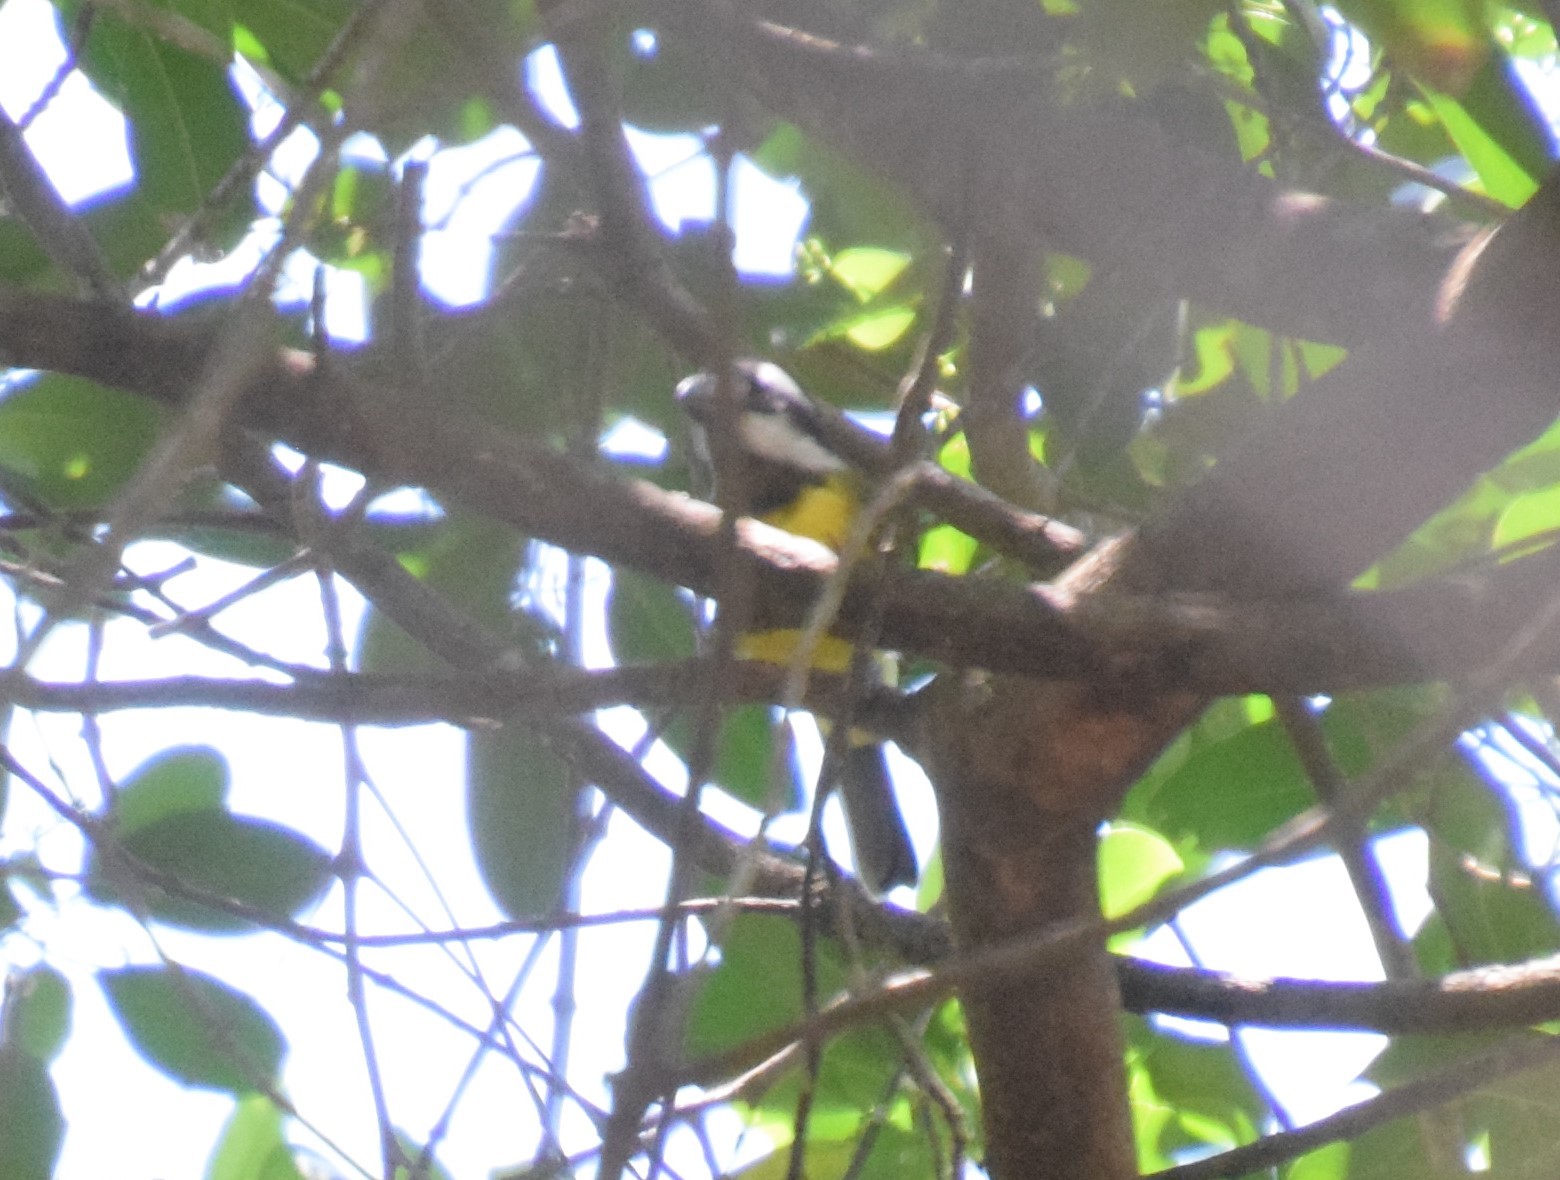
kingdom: Animalia
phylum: Chordata
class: Aves
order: Passeriformes
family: Pachycephalidae
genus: Falcunculus
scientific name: Falcunculus frontatus
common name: Crested shriketit
